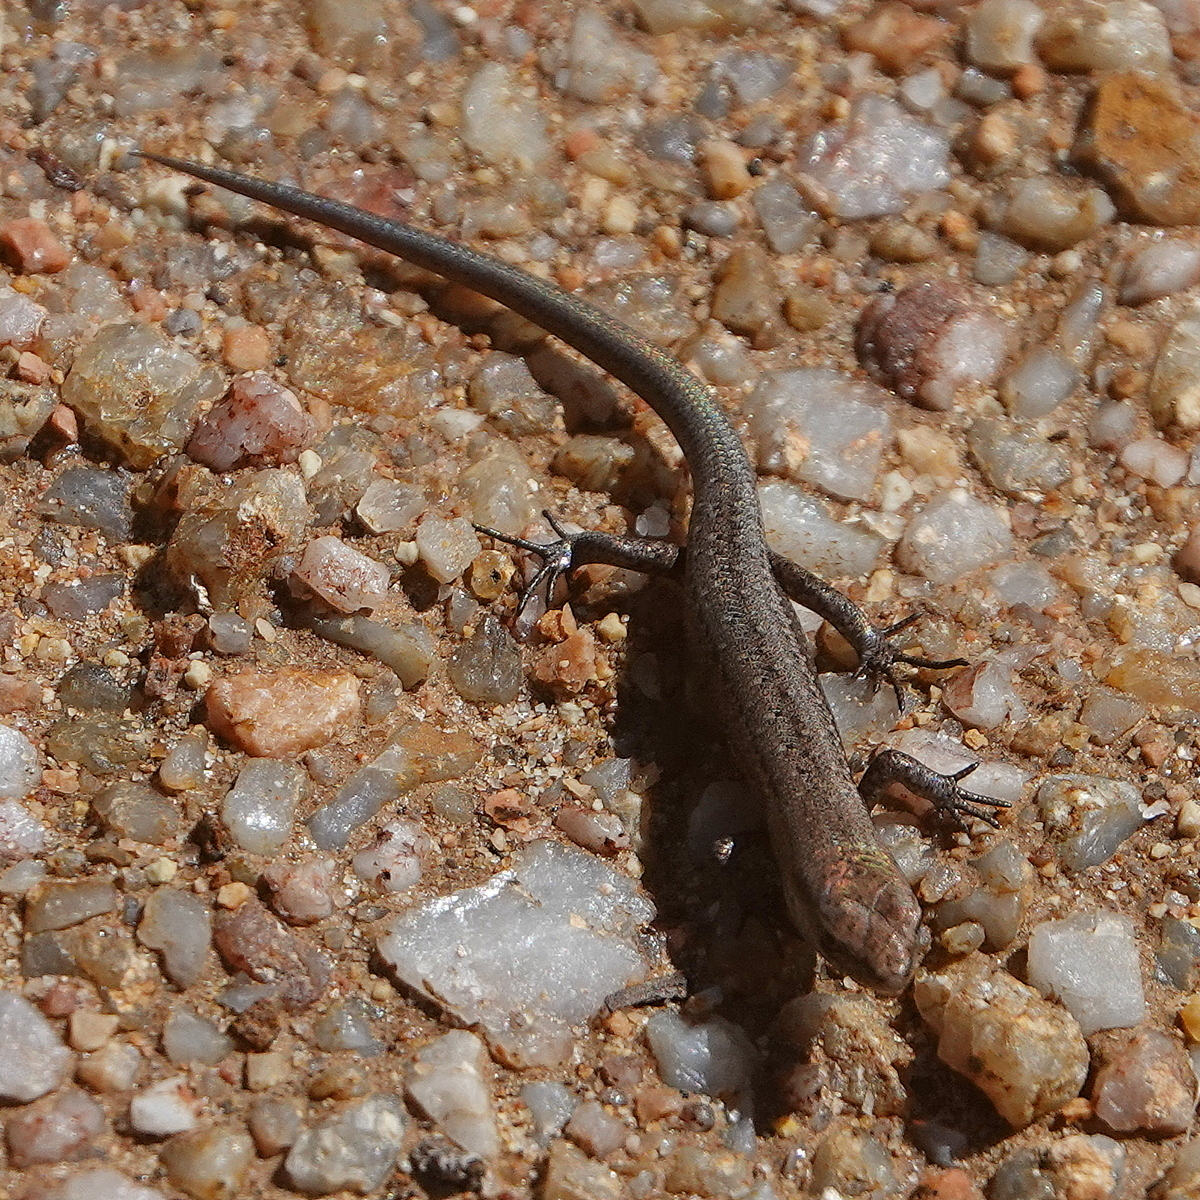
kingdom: Animalia
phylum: Chordata
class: Squamata
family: Scincidae
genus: Lampropholis
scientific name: Lampropholis guichenoti
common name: Garden skink
